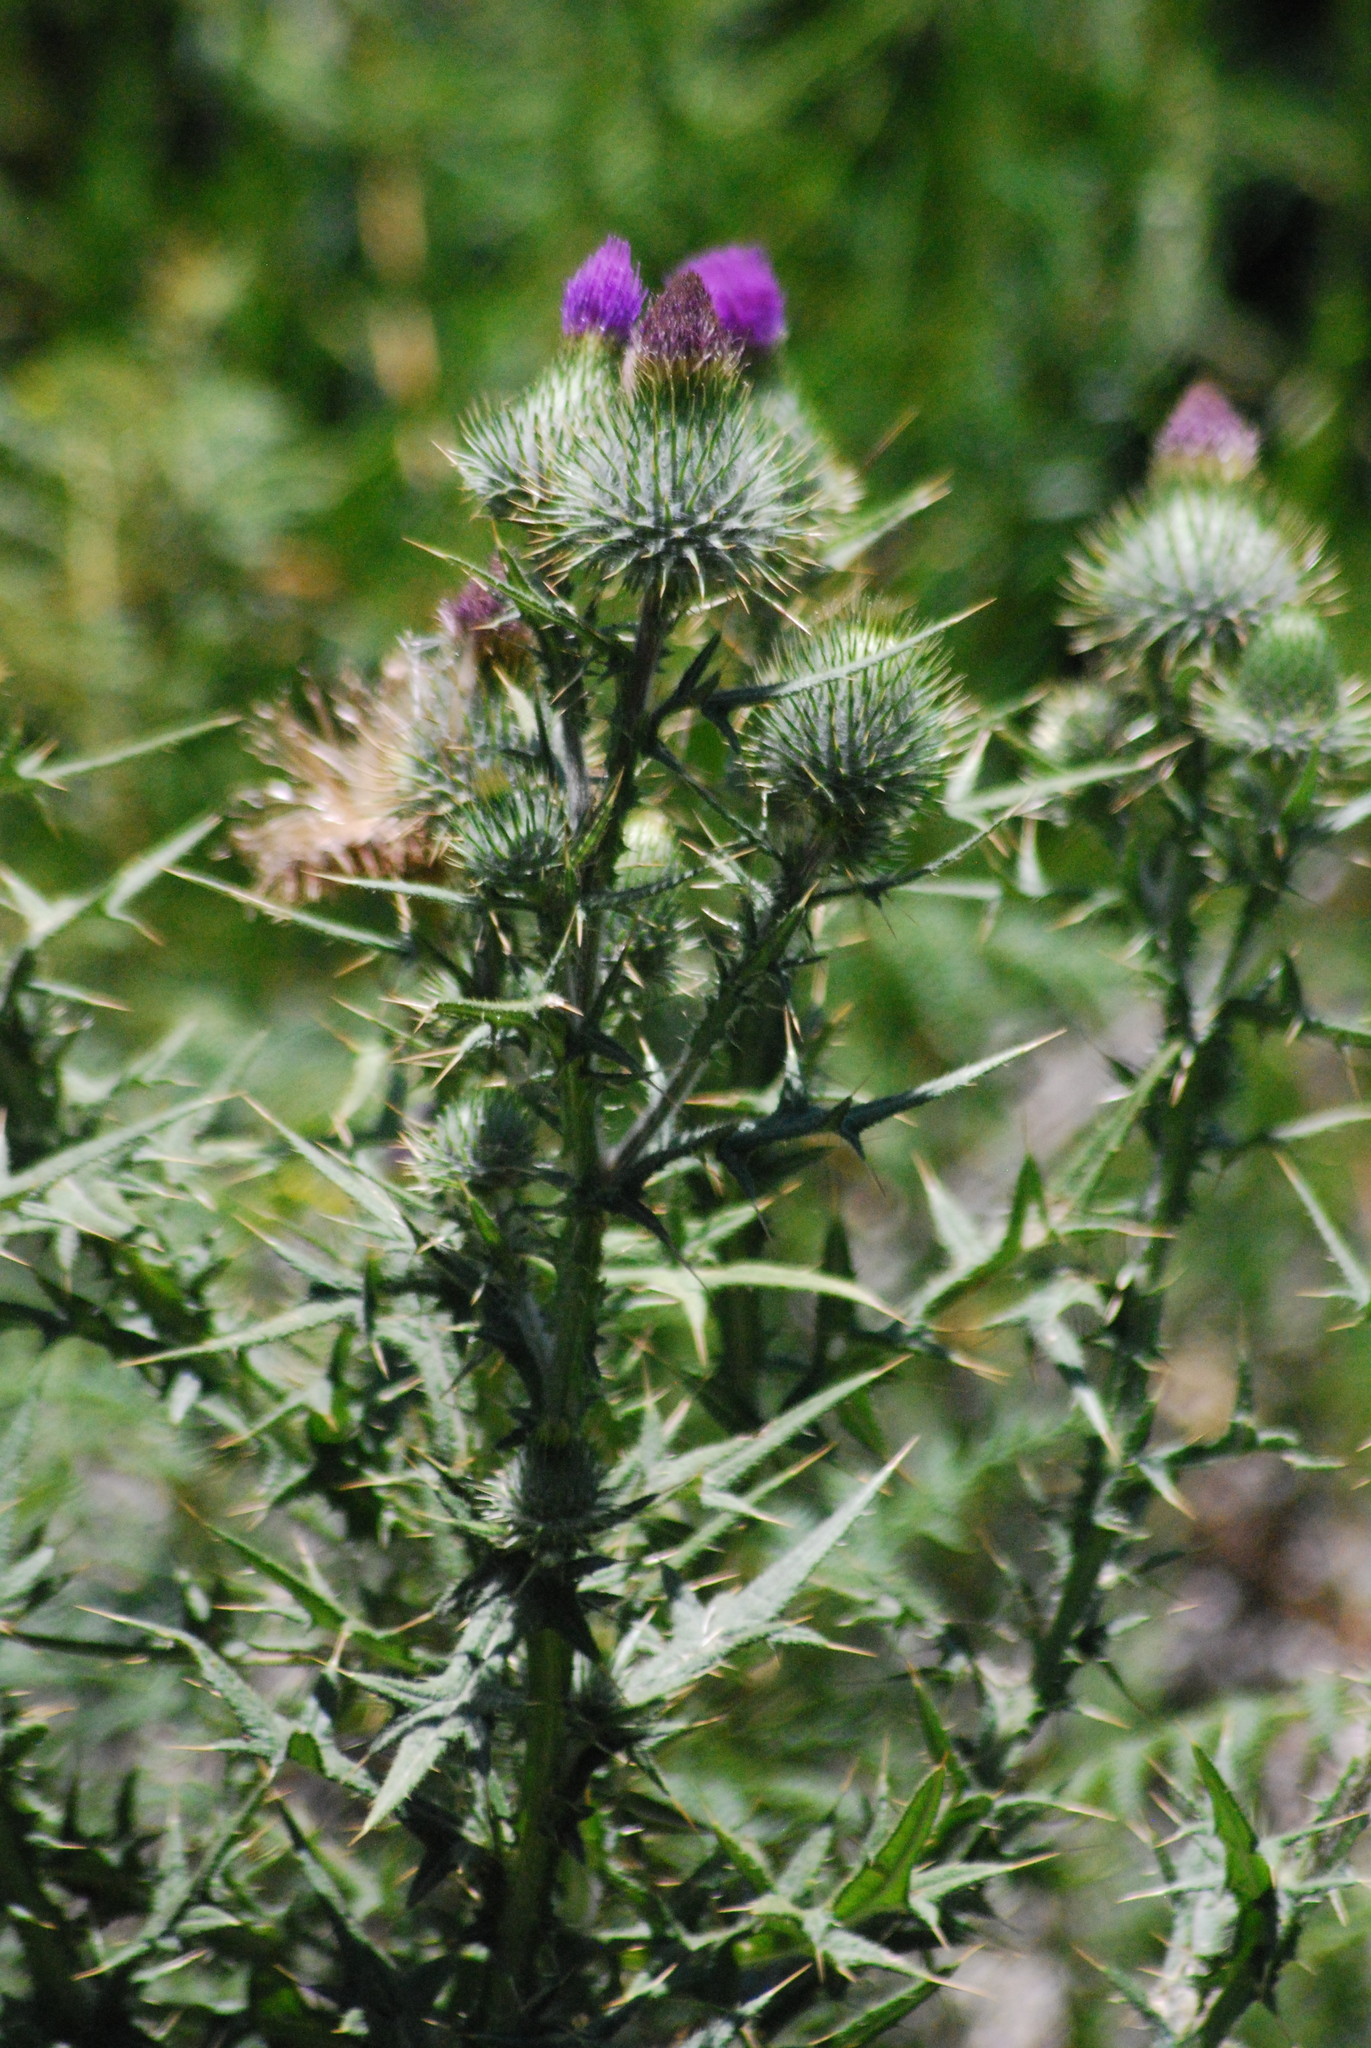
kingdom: Plantae
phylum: Tracheophyta
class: Magnoliopsida
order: Asterales
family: Asteraceae
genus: Cirsium
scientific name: Cirsium vulgare
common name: Bull thistle
